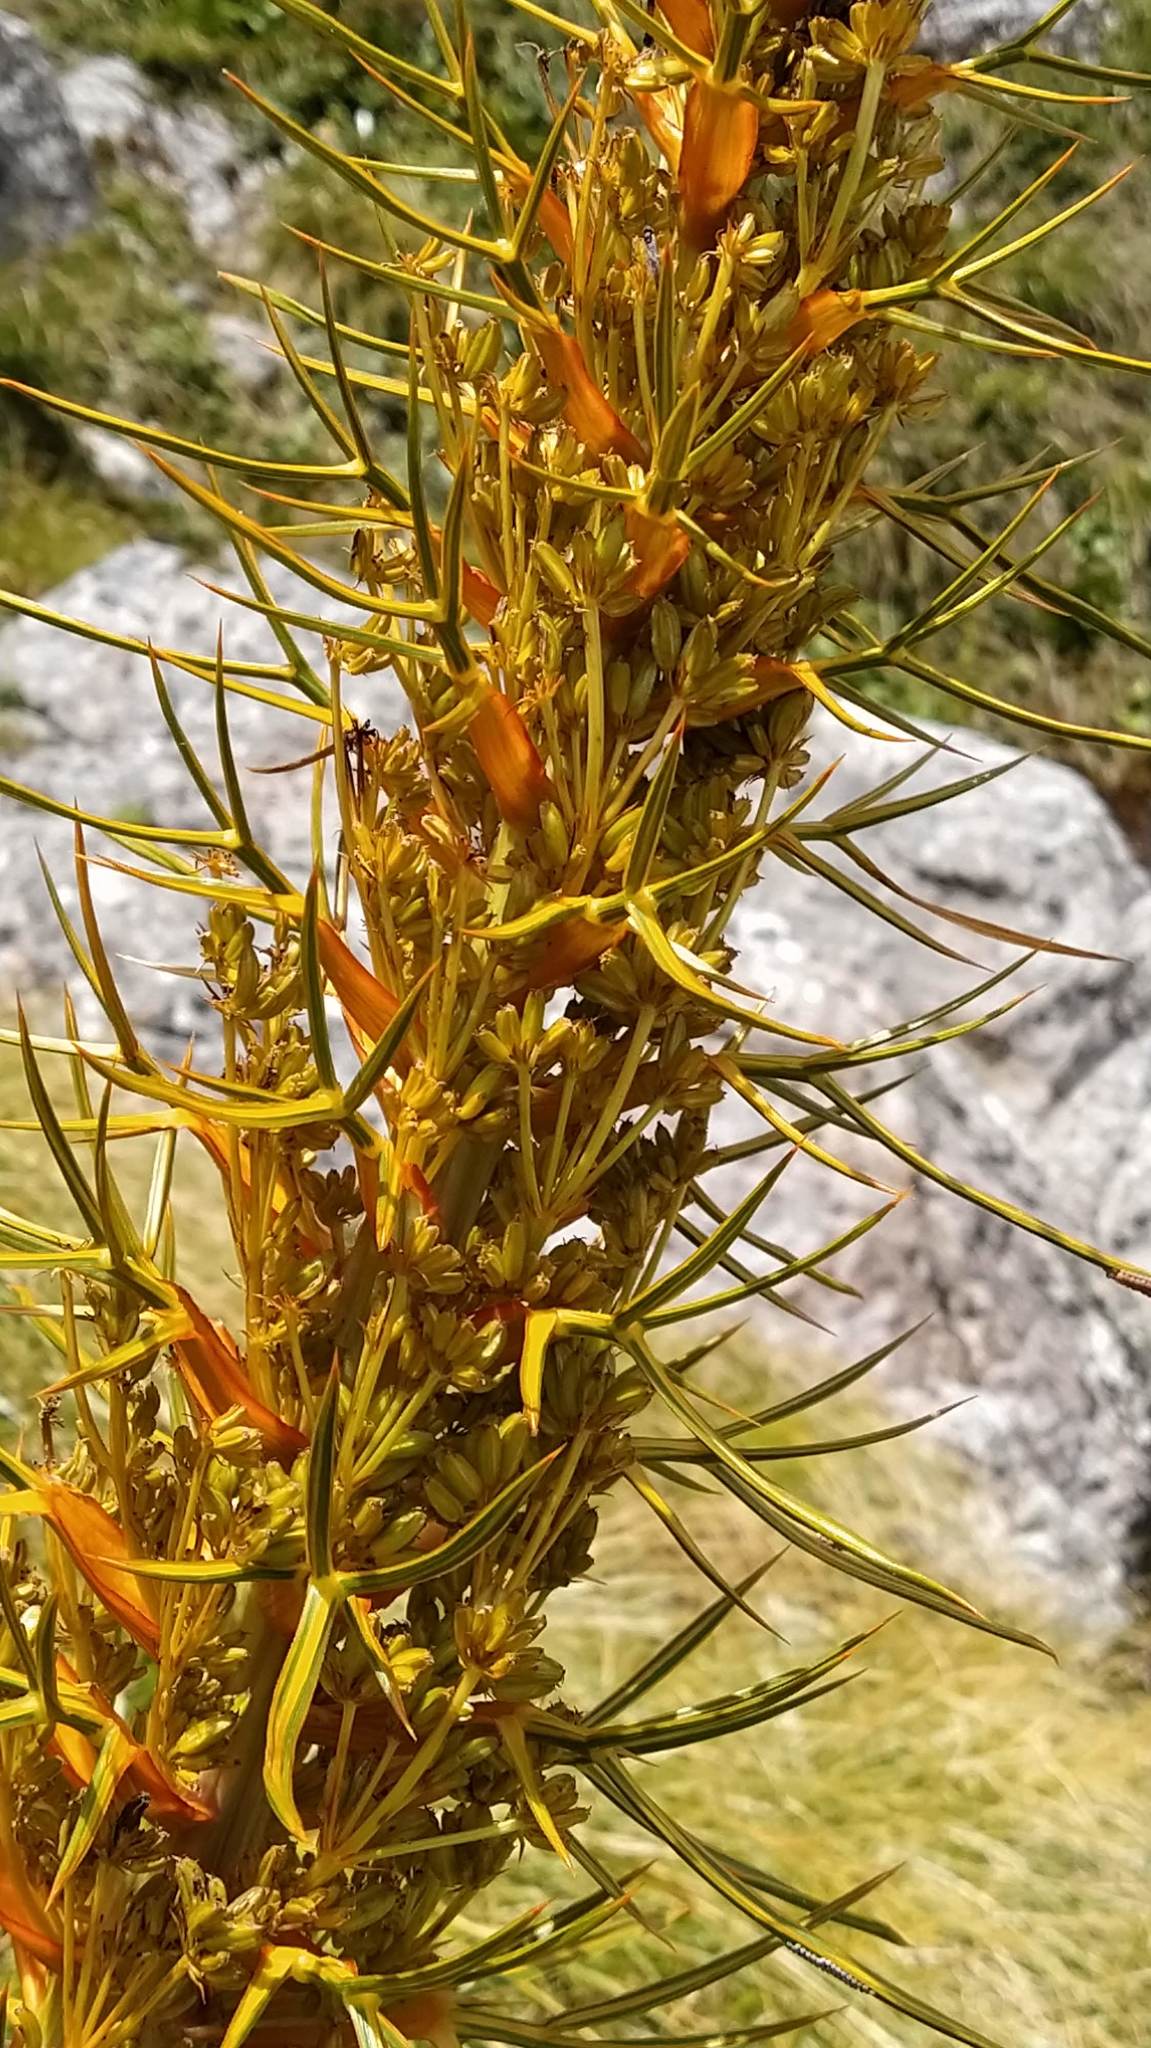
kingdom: Plantae
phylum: Tracheophyta
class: Magnoliopsida
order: Apiales
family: Apiaceae
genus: Aciphylla
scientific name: Aciphylla colensoi
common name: Colenso's spaniard
